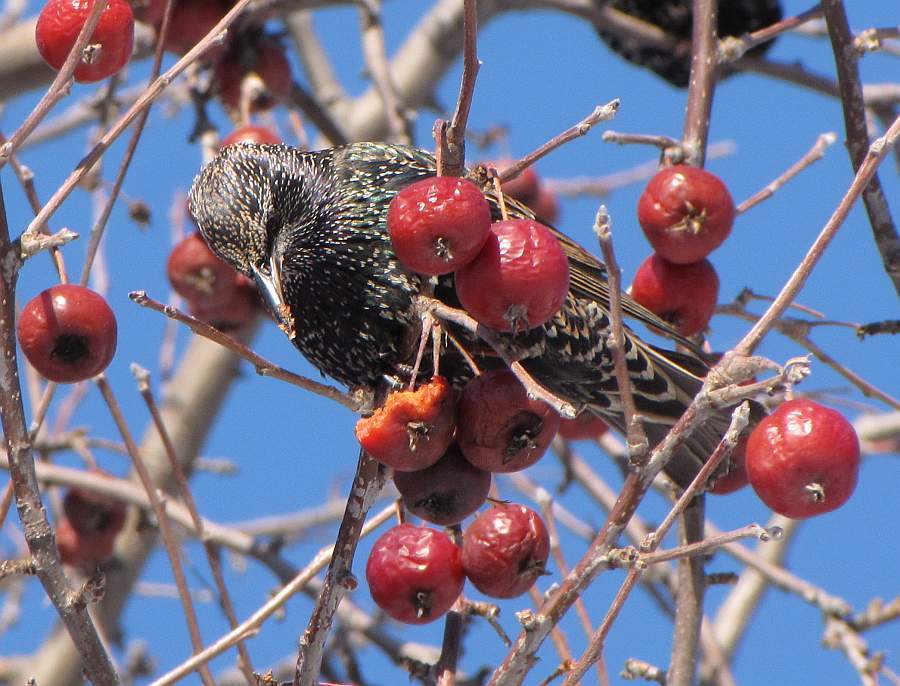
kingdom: Animalia
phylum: Chordata
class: Aves
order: Passeriformes
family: Sturnidae
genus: Sturnus
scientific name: Sturnus vulgaris
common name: Common starling
